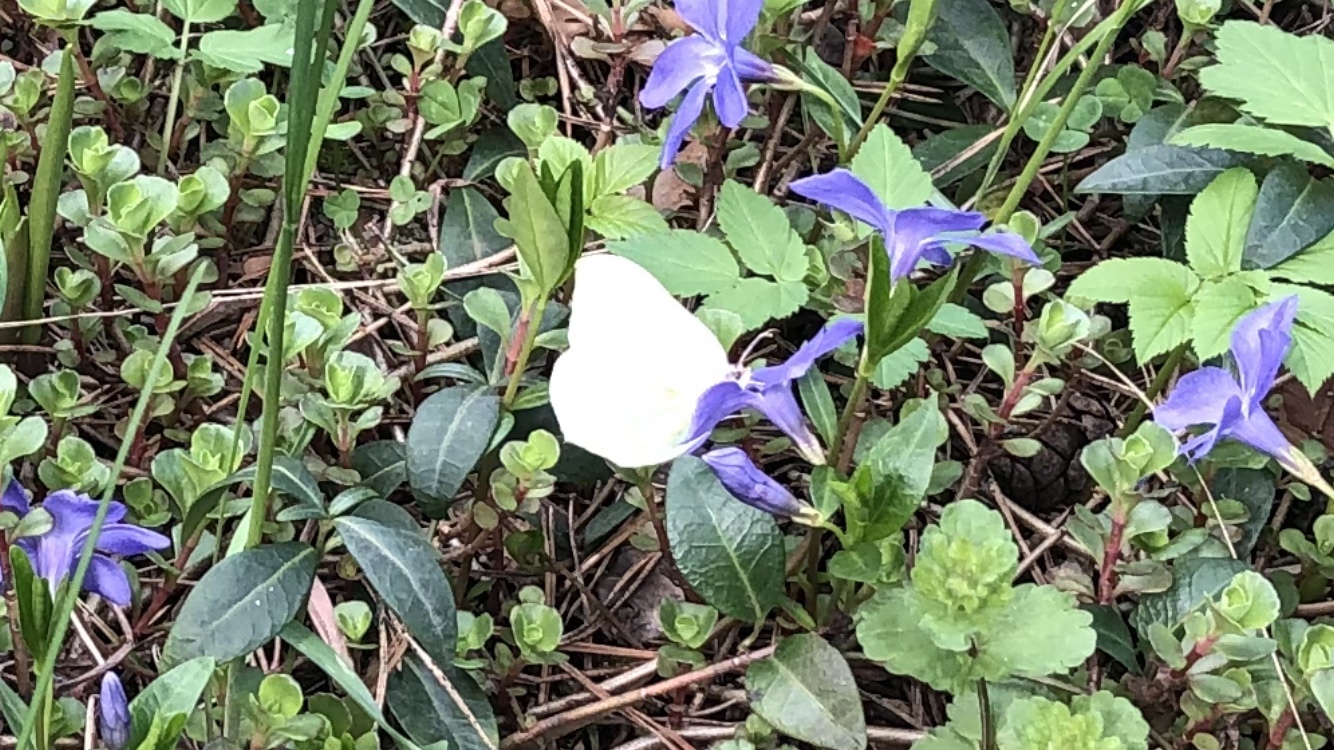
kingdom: Animalia
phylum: Arthropoda
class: Insecta
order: Lepidoptera
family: Pieridae
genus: Gonepteryx
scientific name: Gonepteryx rhamni
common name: Brimstone
